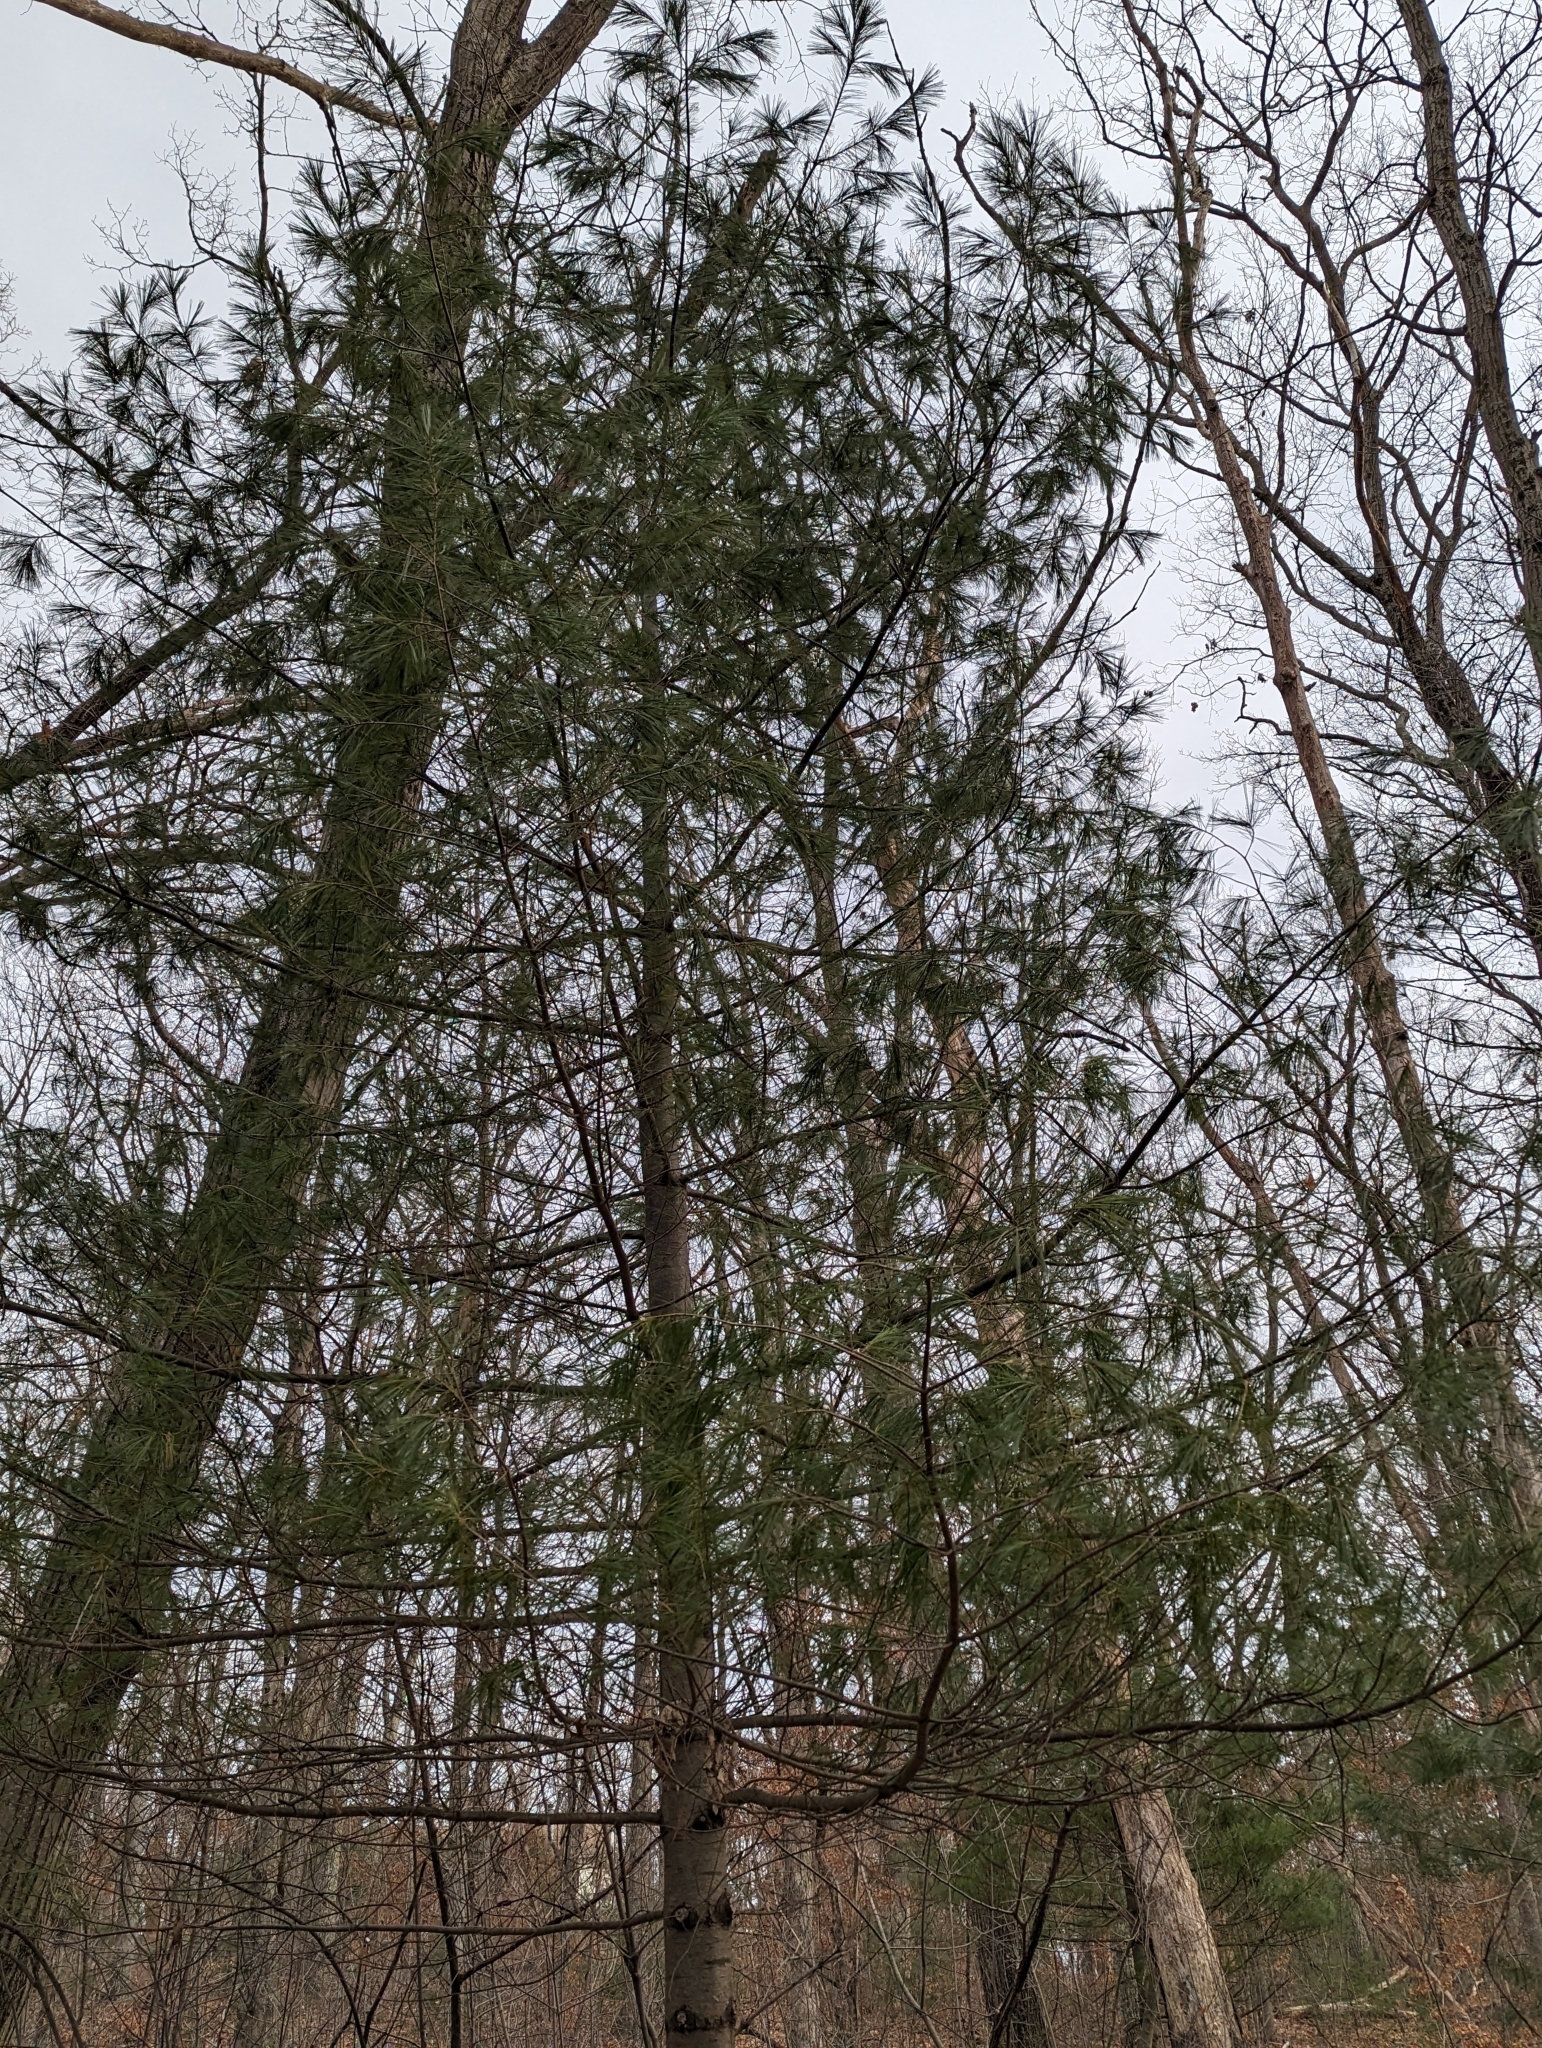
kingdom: Plantae
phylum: Tracheophyta
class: Pinopsida
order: Pinales
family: Pinaceae
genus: Pinus
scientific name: Pinus strobus
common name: Weymouth pine
